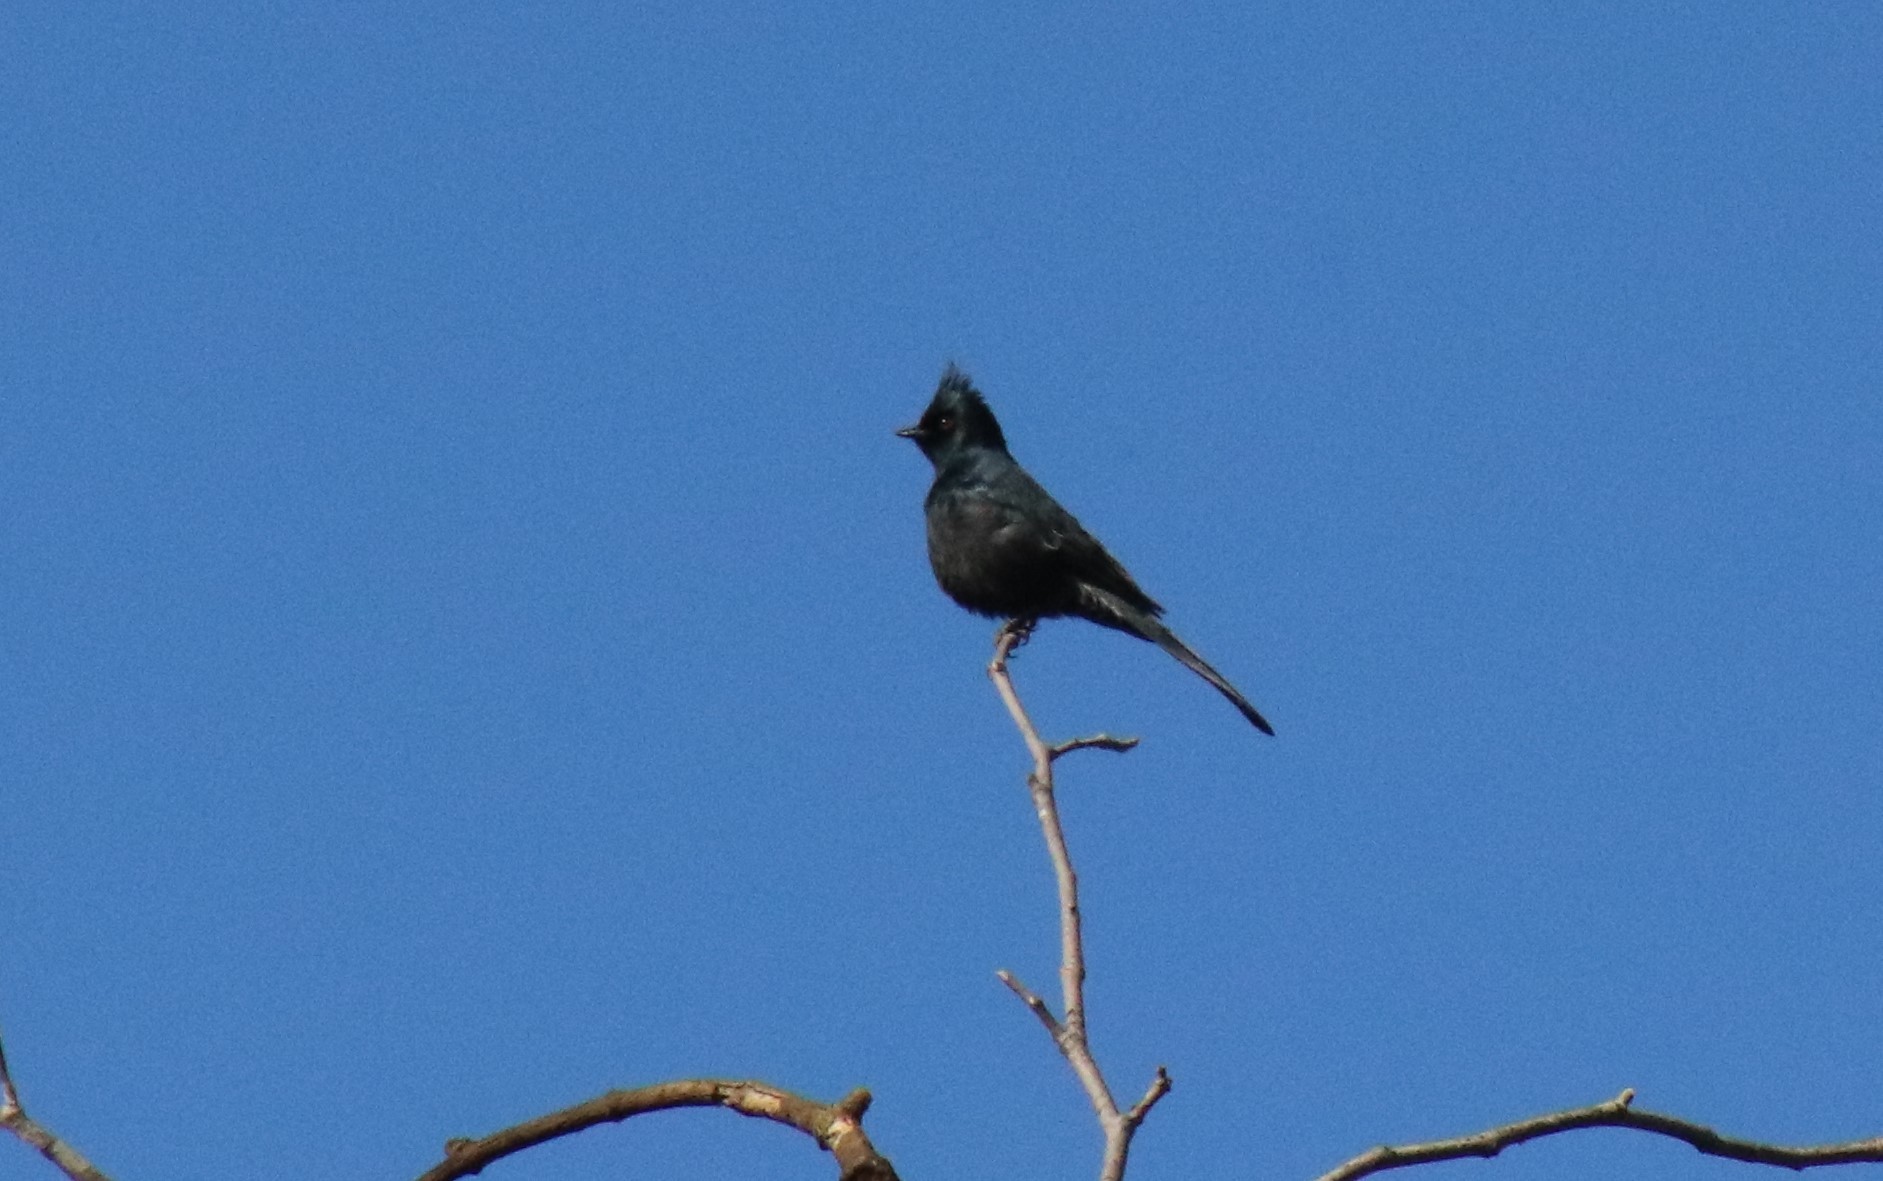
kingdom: Animalia
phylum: Chordata
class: Aves
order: Passeriformes
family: Ptilogonatidae
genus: Phainopepla
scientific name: Phainopepla nitens
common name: Phainopepla
